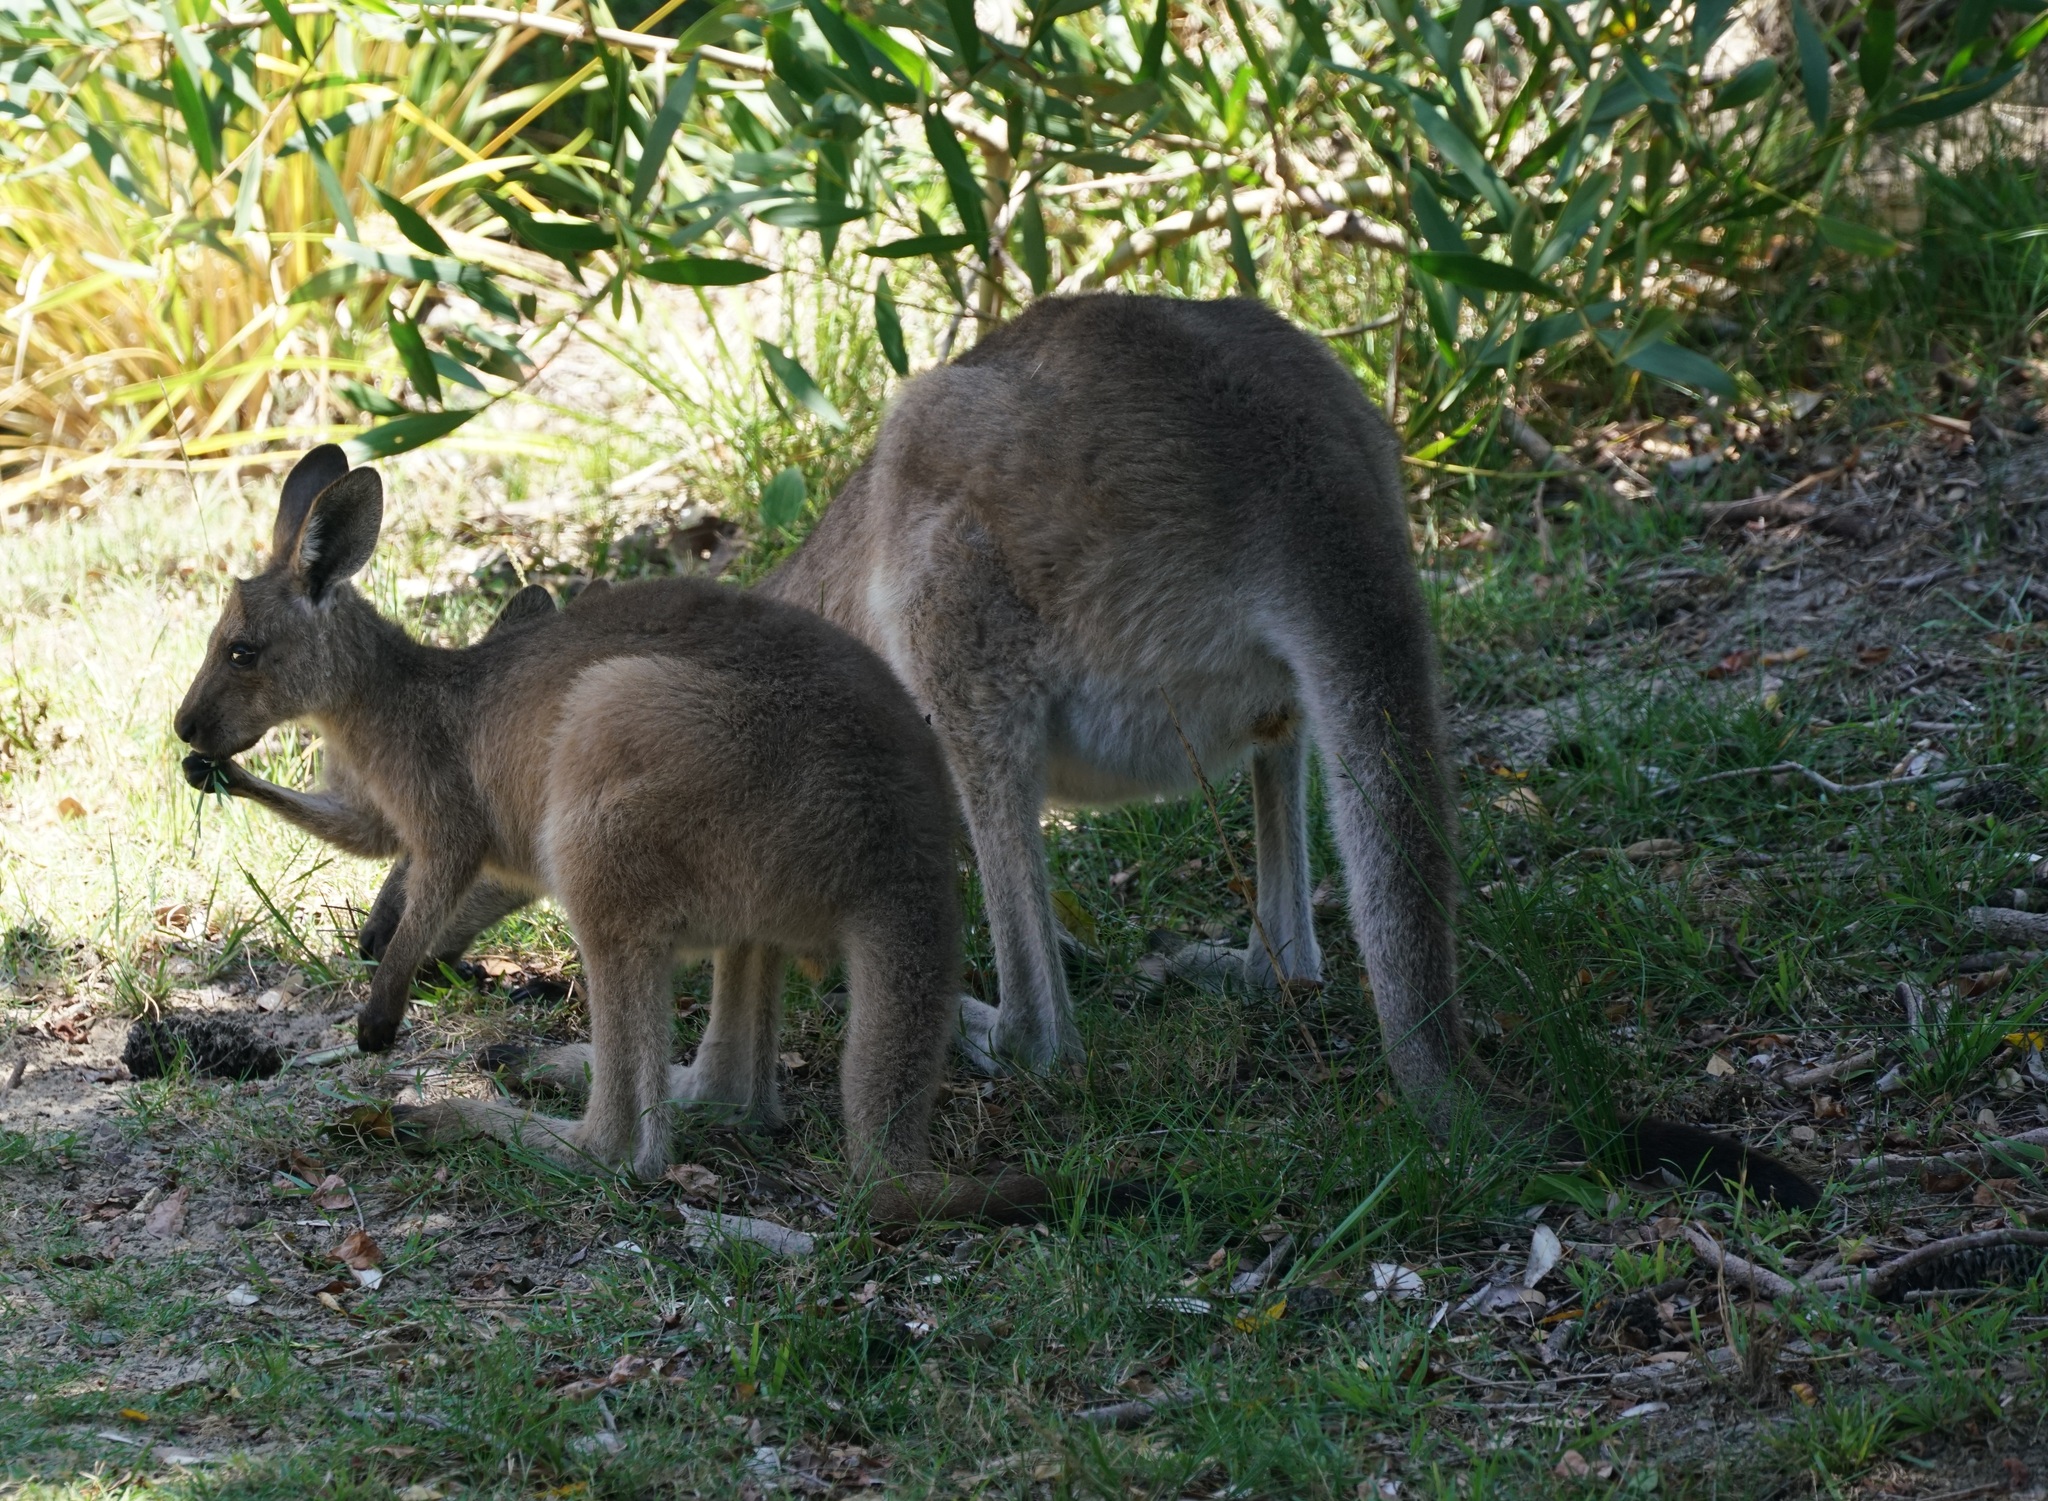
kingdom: Animalia
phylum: Chordata
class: Mammalia
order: Diprotodontia
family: Macropodidae
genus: Macropus
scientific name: Macropus giganteus
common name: Eastern grey kangaroo
